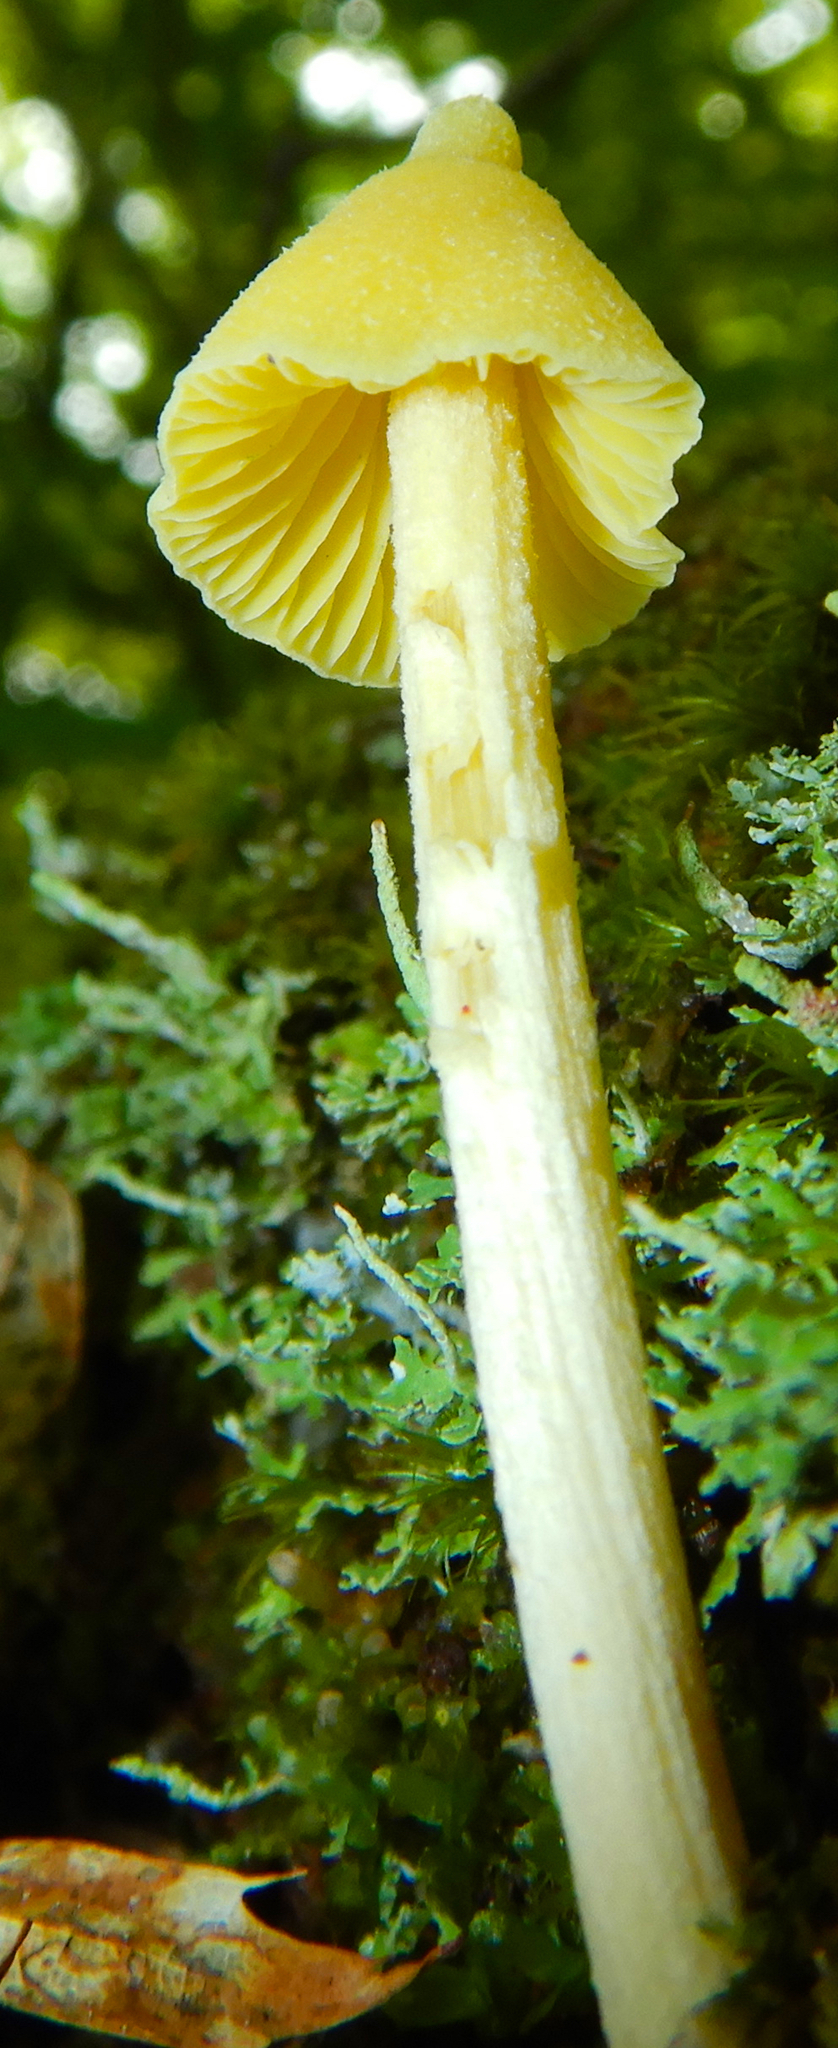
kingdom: Fungi
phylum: Basidiomycota
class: Agaricomycetes
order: Agaricales
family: Entolomataceae
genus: Entoloma
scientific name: Entoloma murrayi
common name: Yellow unicorn entoloma
